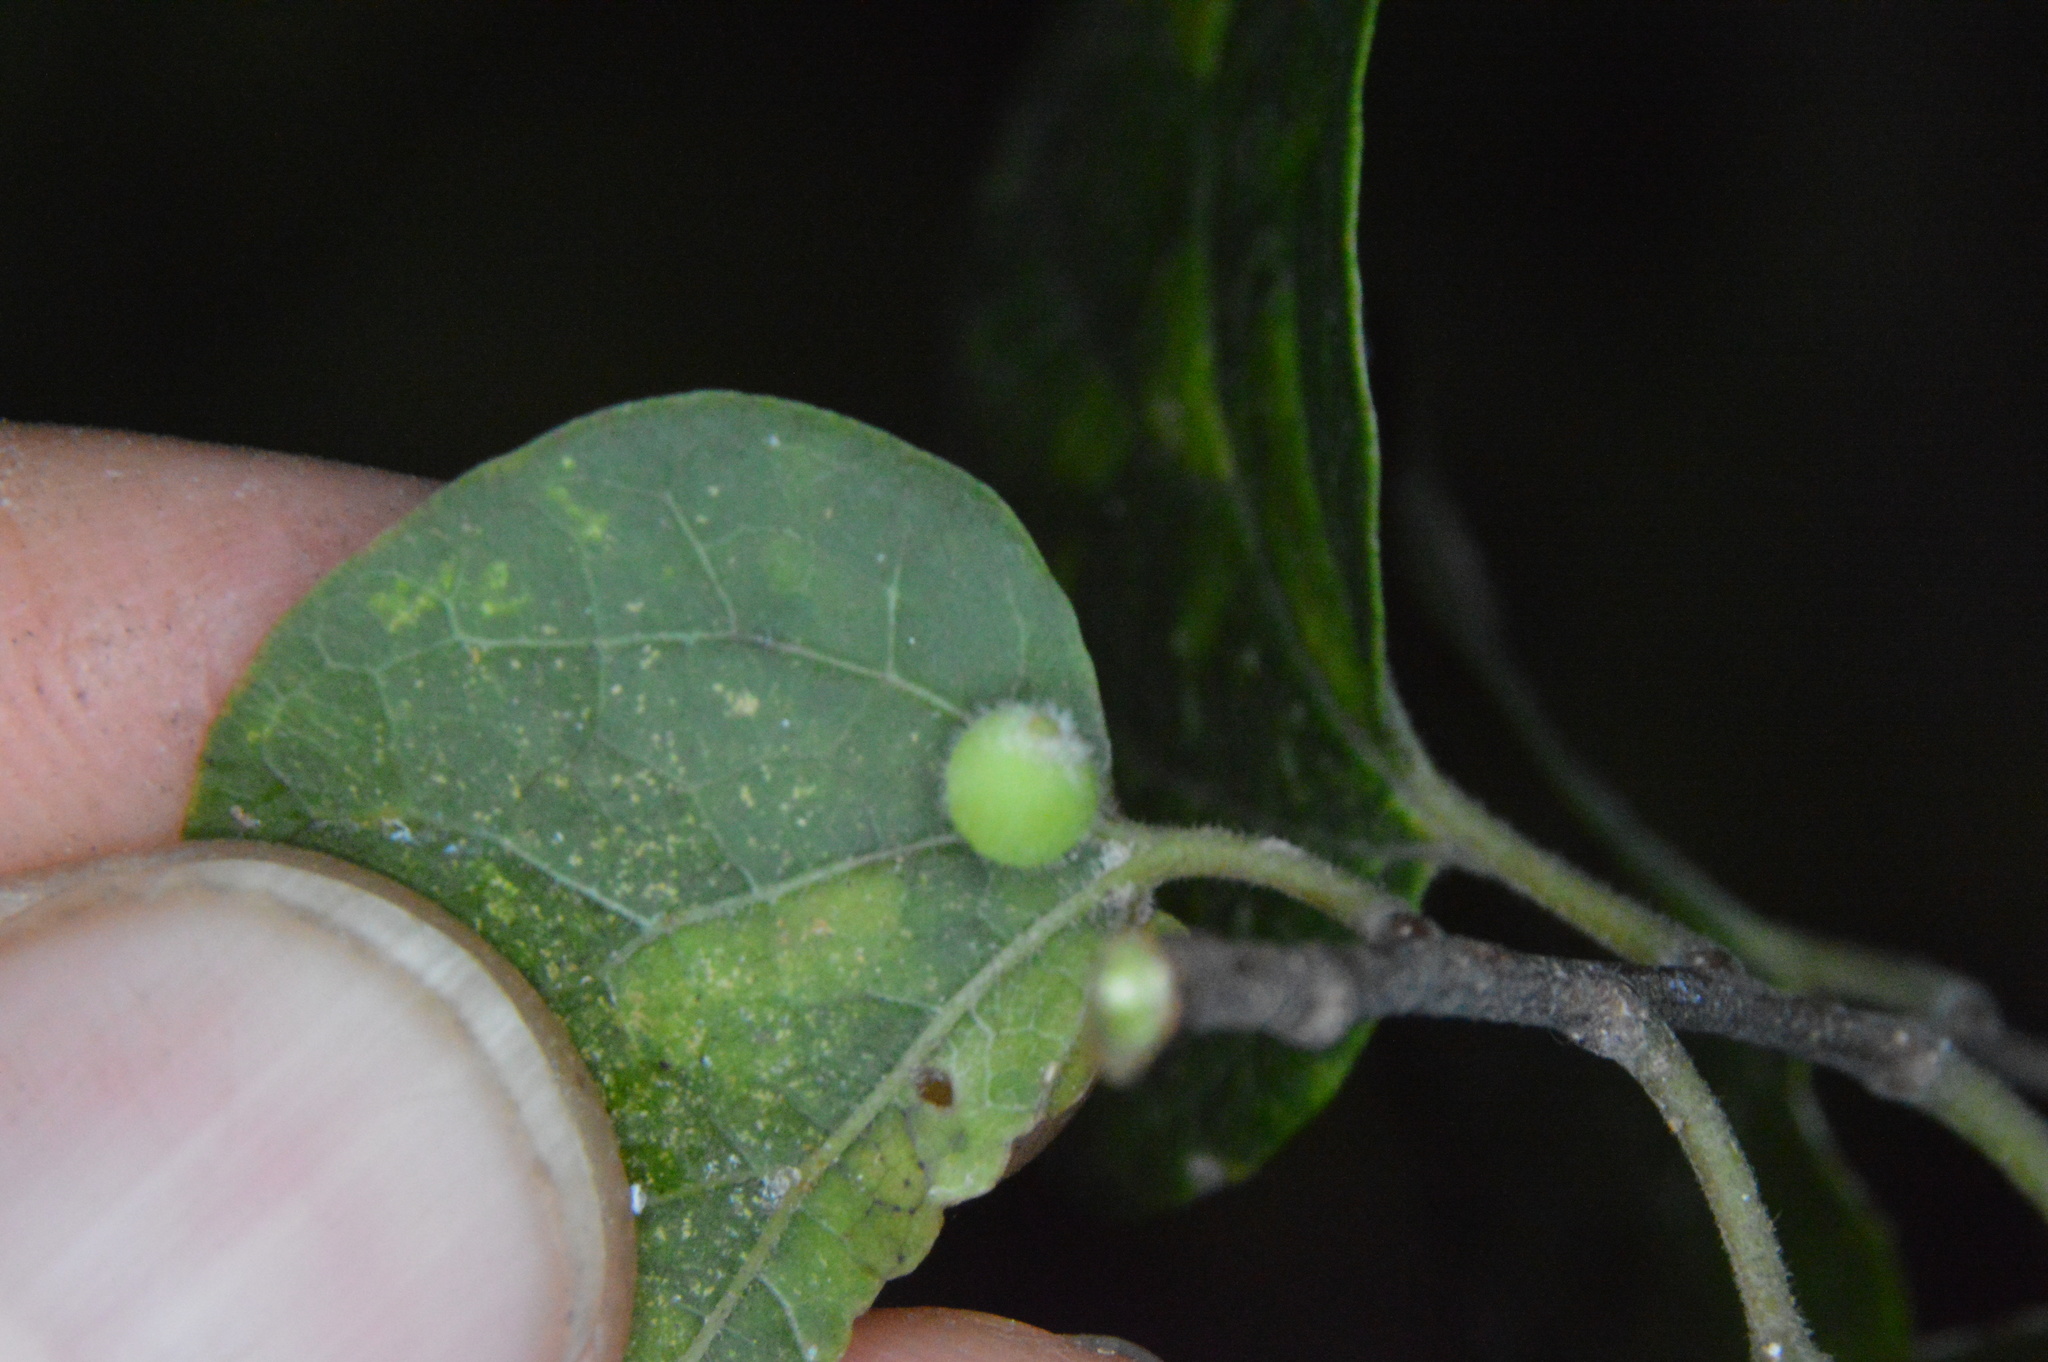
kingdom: Animalia
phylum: Arthropoda
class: Insecta
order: Diptera
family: Cecidomyiidae
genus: Celticecis
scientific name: Celticecis globosa
